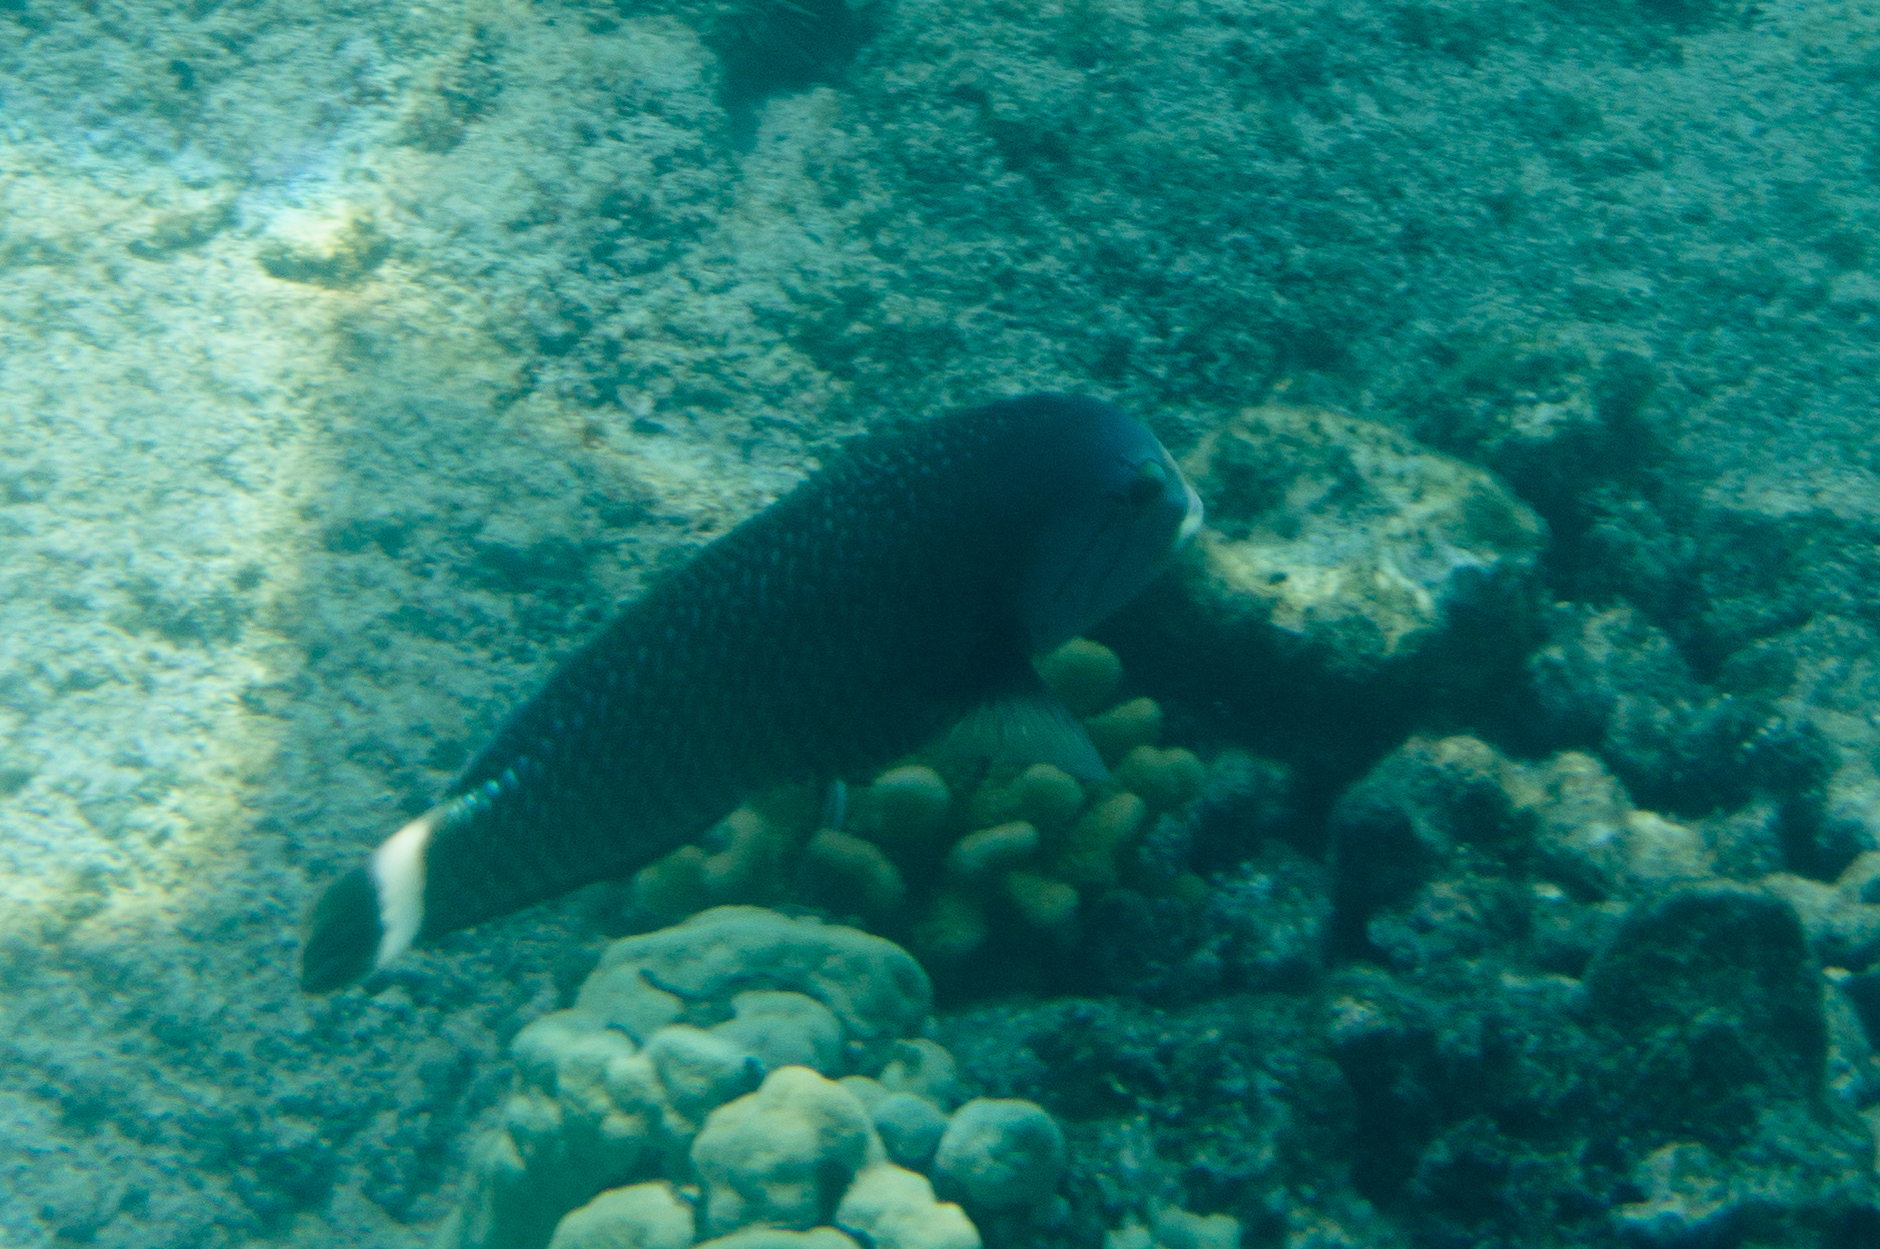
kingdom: Animalia
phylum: Chordata
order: Perciformes
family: Labridae
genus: Novaculichthys
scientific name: Novaculichthys taeniourus
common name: Rockmover wrasse
